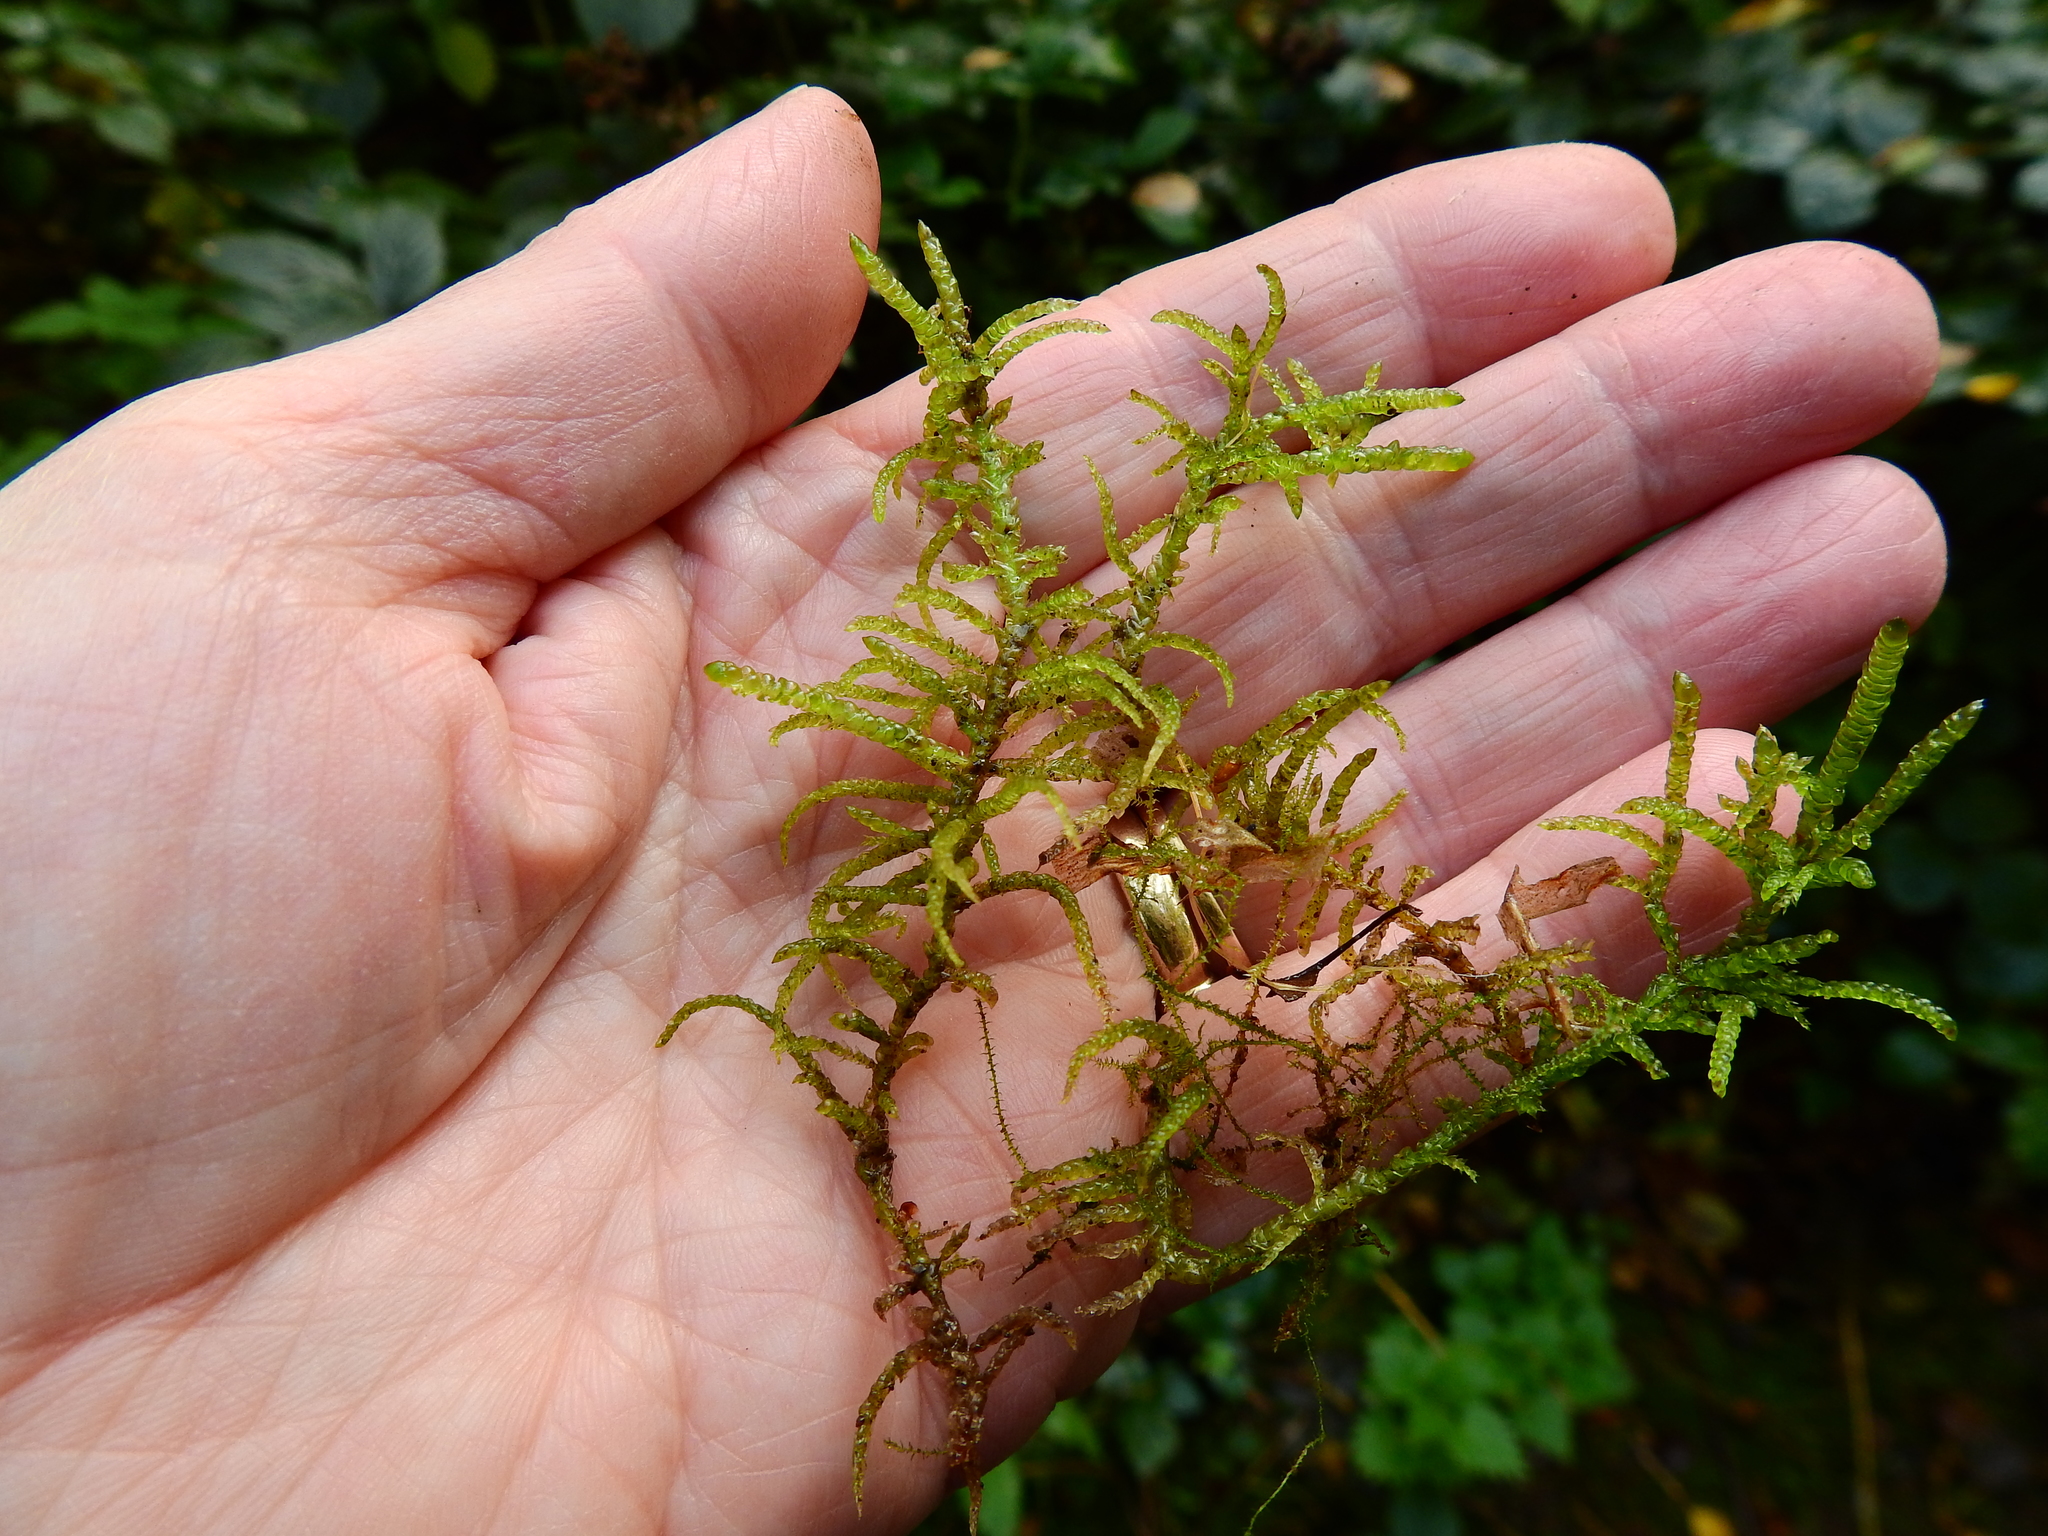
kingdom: Plantae
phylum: Bryophyta
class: Bryopsida
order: Hypnales
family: Brachytheciaceae
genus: Pseudoscleropodium
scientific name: Pseudoscleropodium purum
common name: Neat feather-moss
